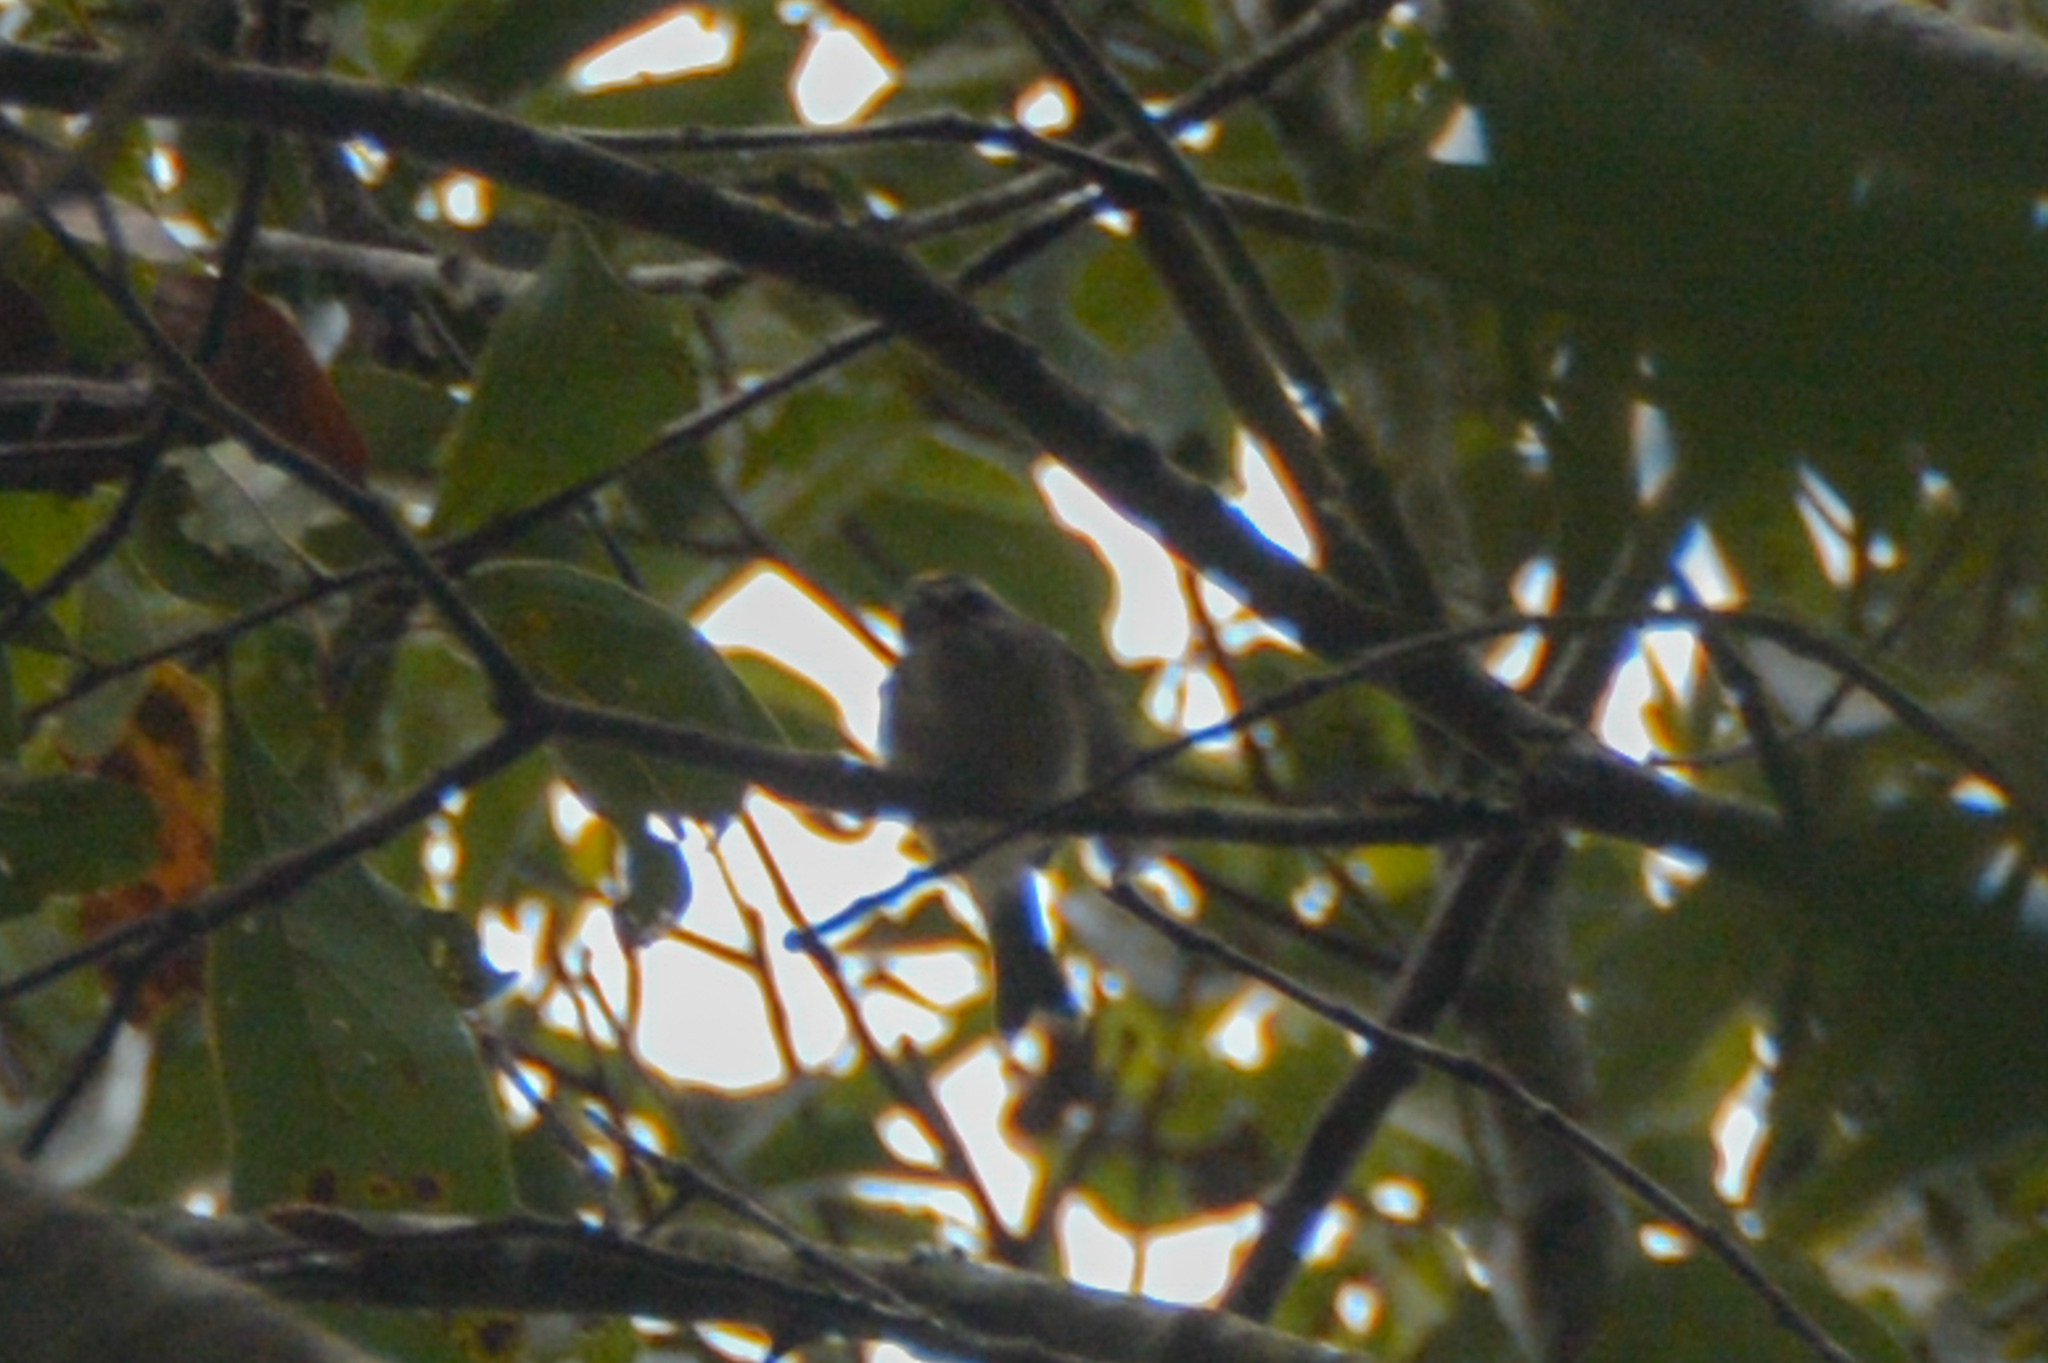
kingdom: Animalia
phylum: Chordata
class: Aves
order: Passeriformes
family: Regulidae
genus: Regulus
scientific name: Regulus satrapa
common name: Golden-crowned kinglet
